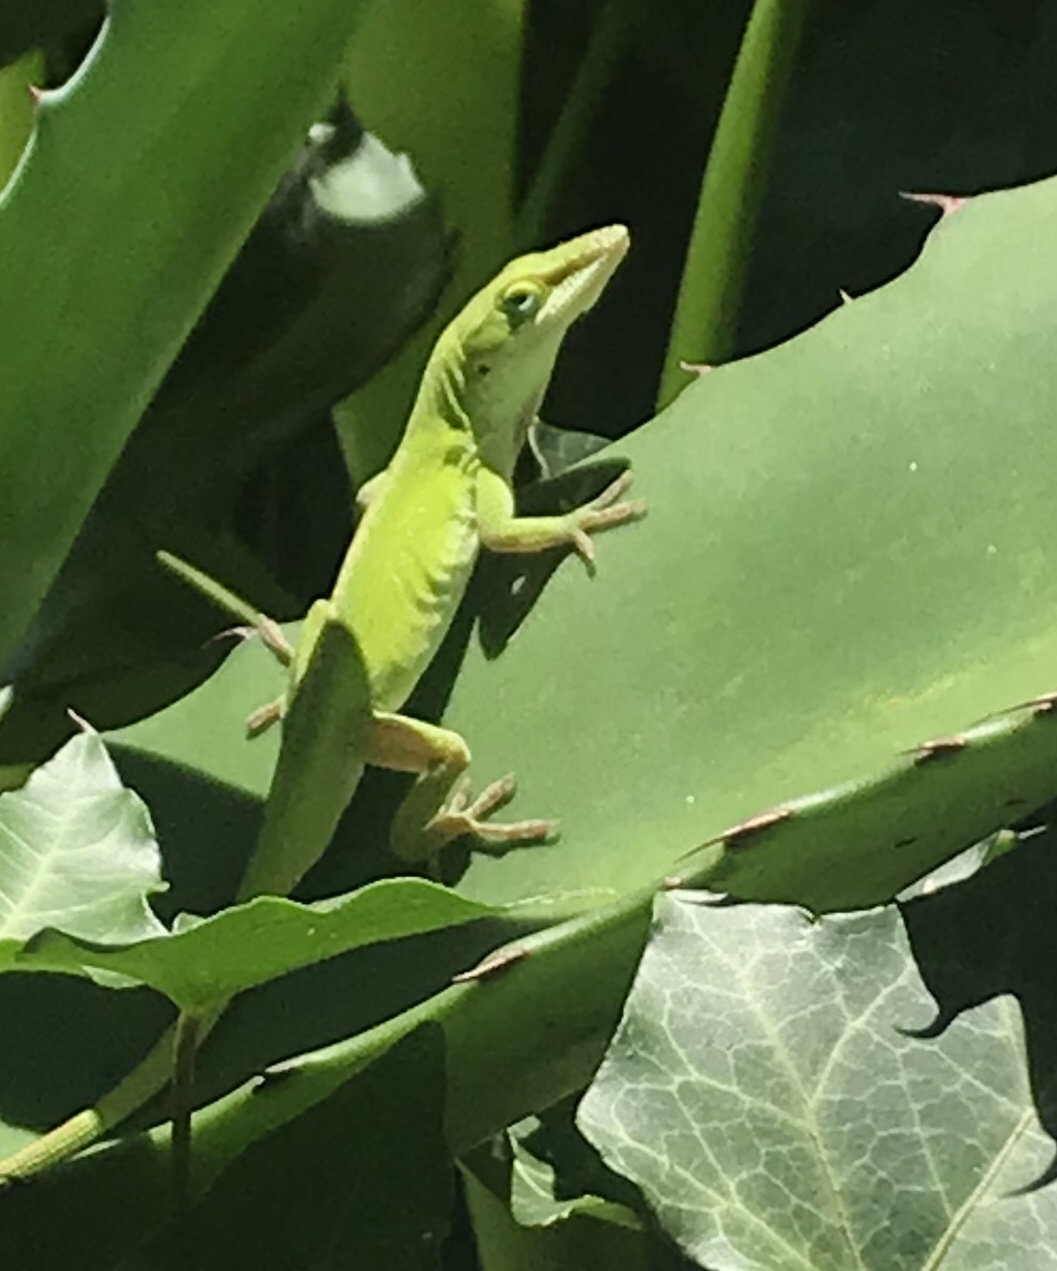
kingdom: Animalia
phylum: Chordata
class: Squamata
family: Dactyloidae
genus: Anolis
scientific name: Anolis carolinensis
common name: Green anole
